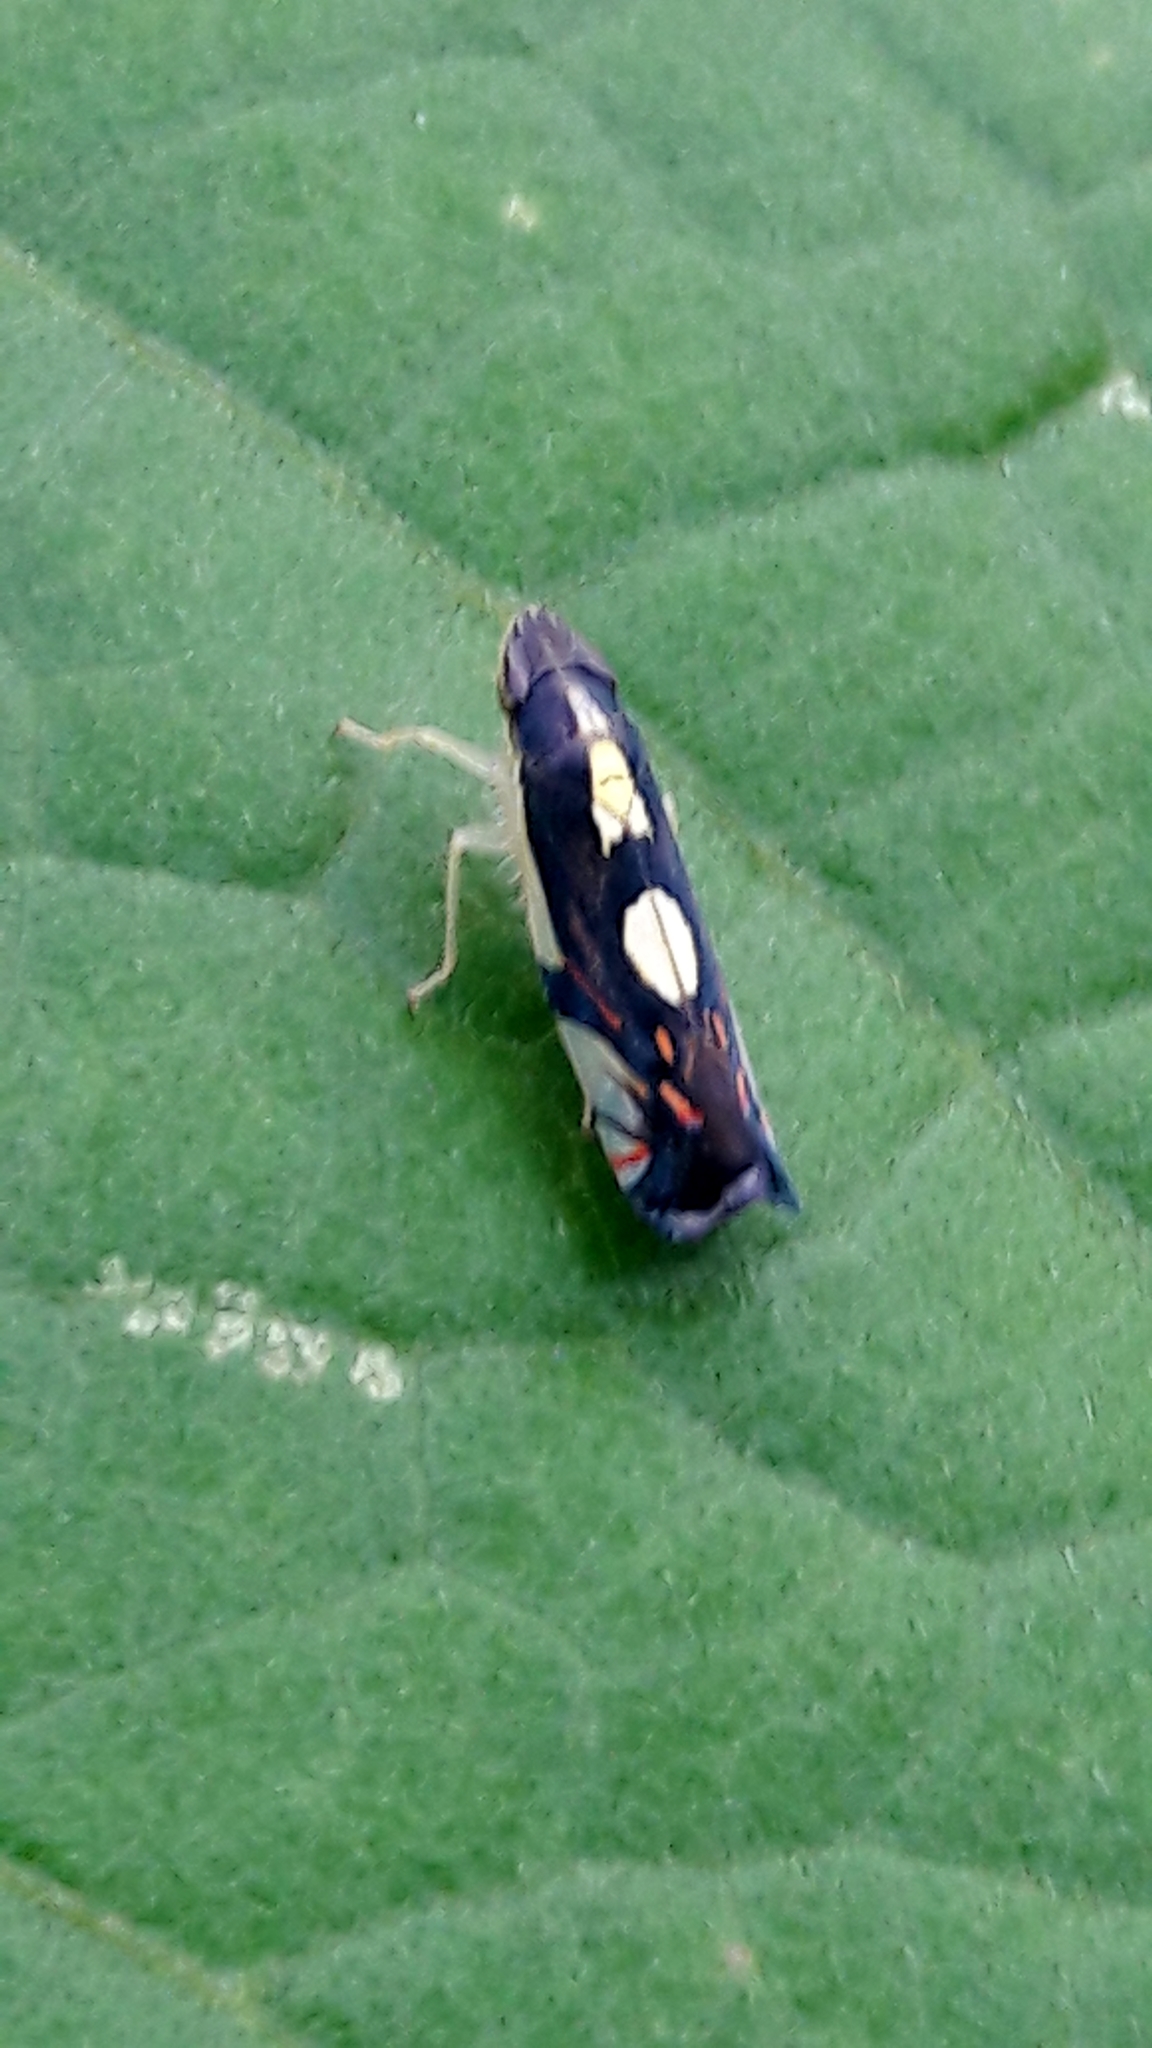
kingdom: Animalia
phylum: Arthropoda
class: Insecta
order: Hemiptera
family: Cicadellidae
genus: Diedrocephala
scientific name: Diedrocephala variegata
